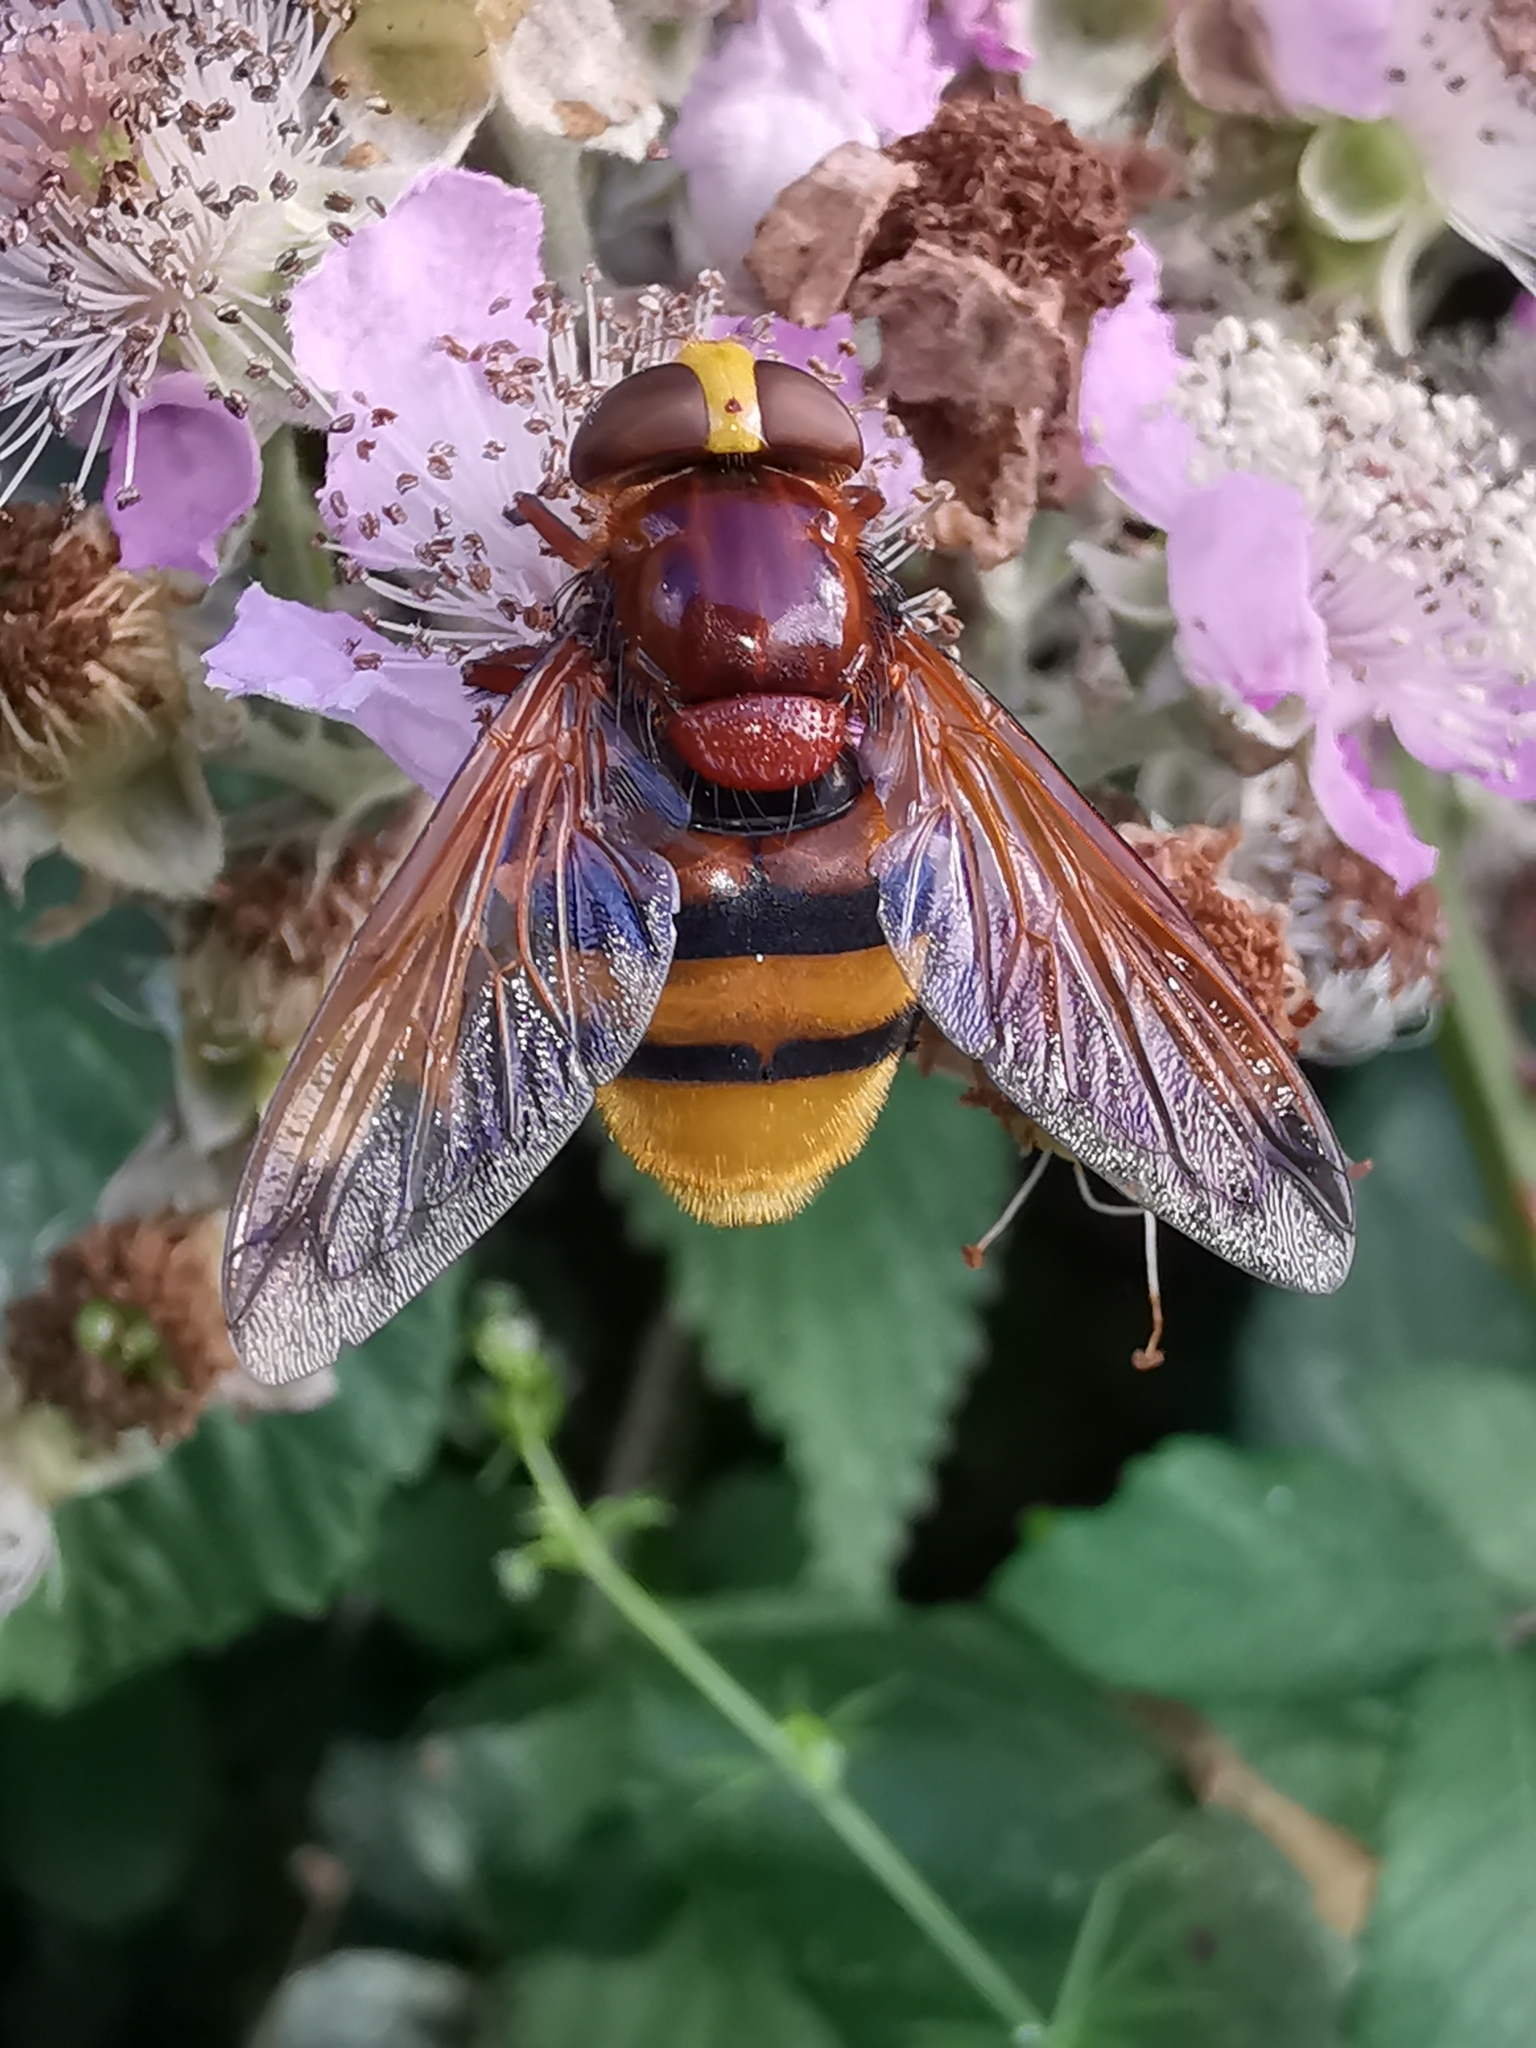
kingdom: Animalia
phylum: Arthropoda
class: Insecta
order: Diptera
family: Syrphidae
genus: Volucella
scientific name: Volucella zonaria
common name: Hornet hoverfly
